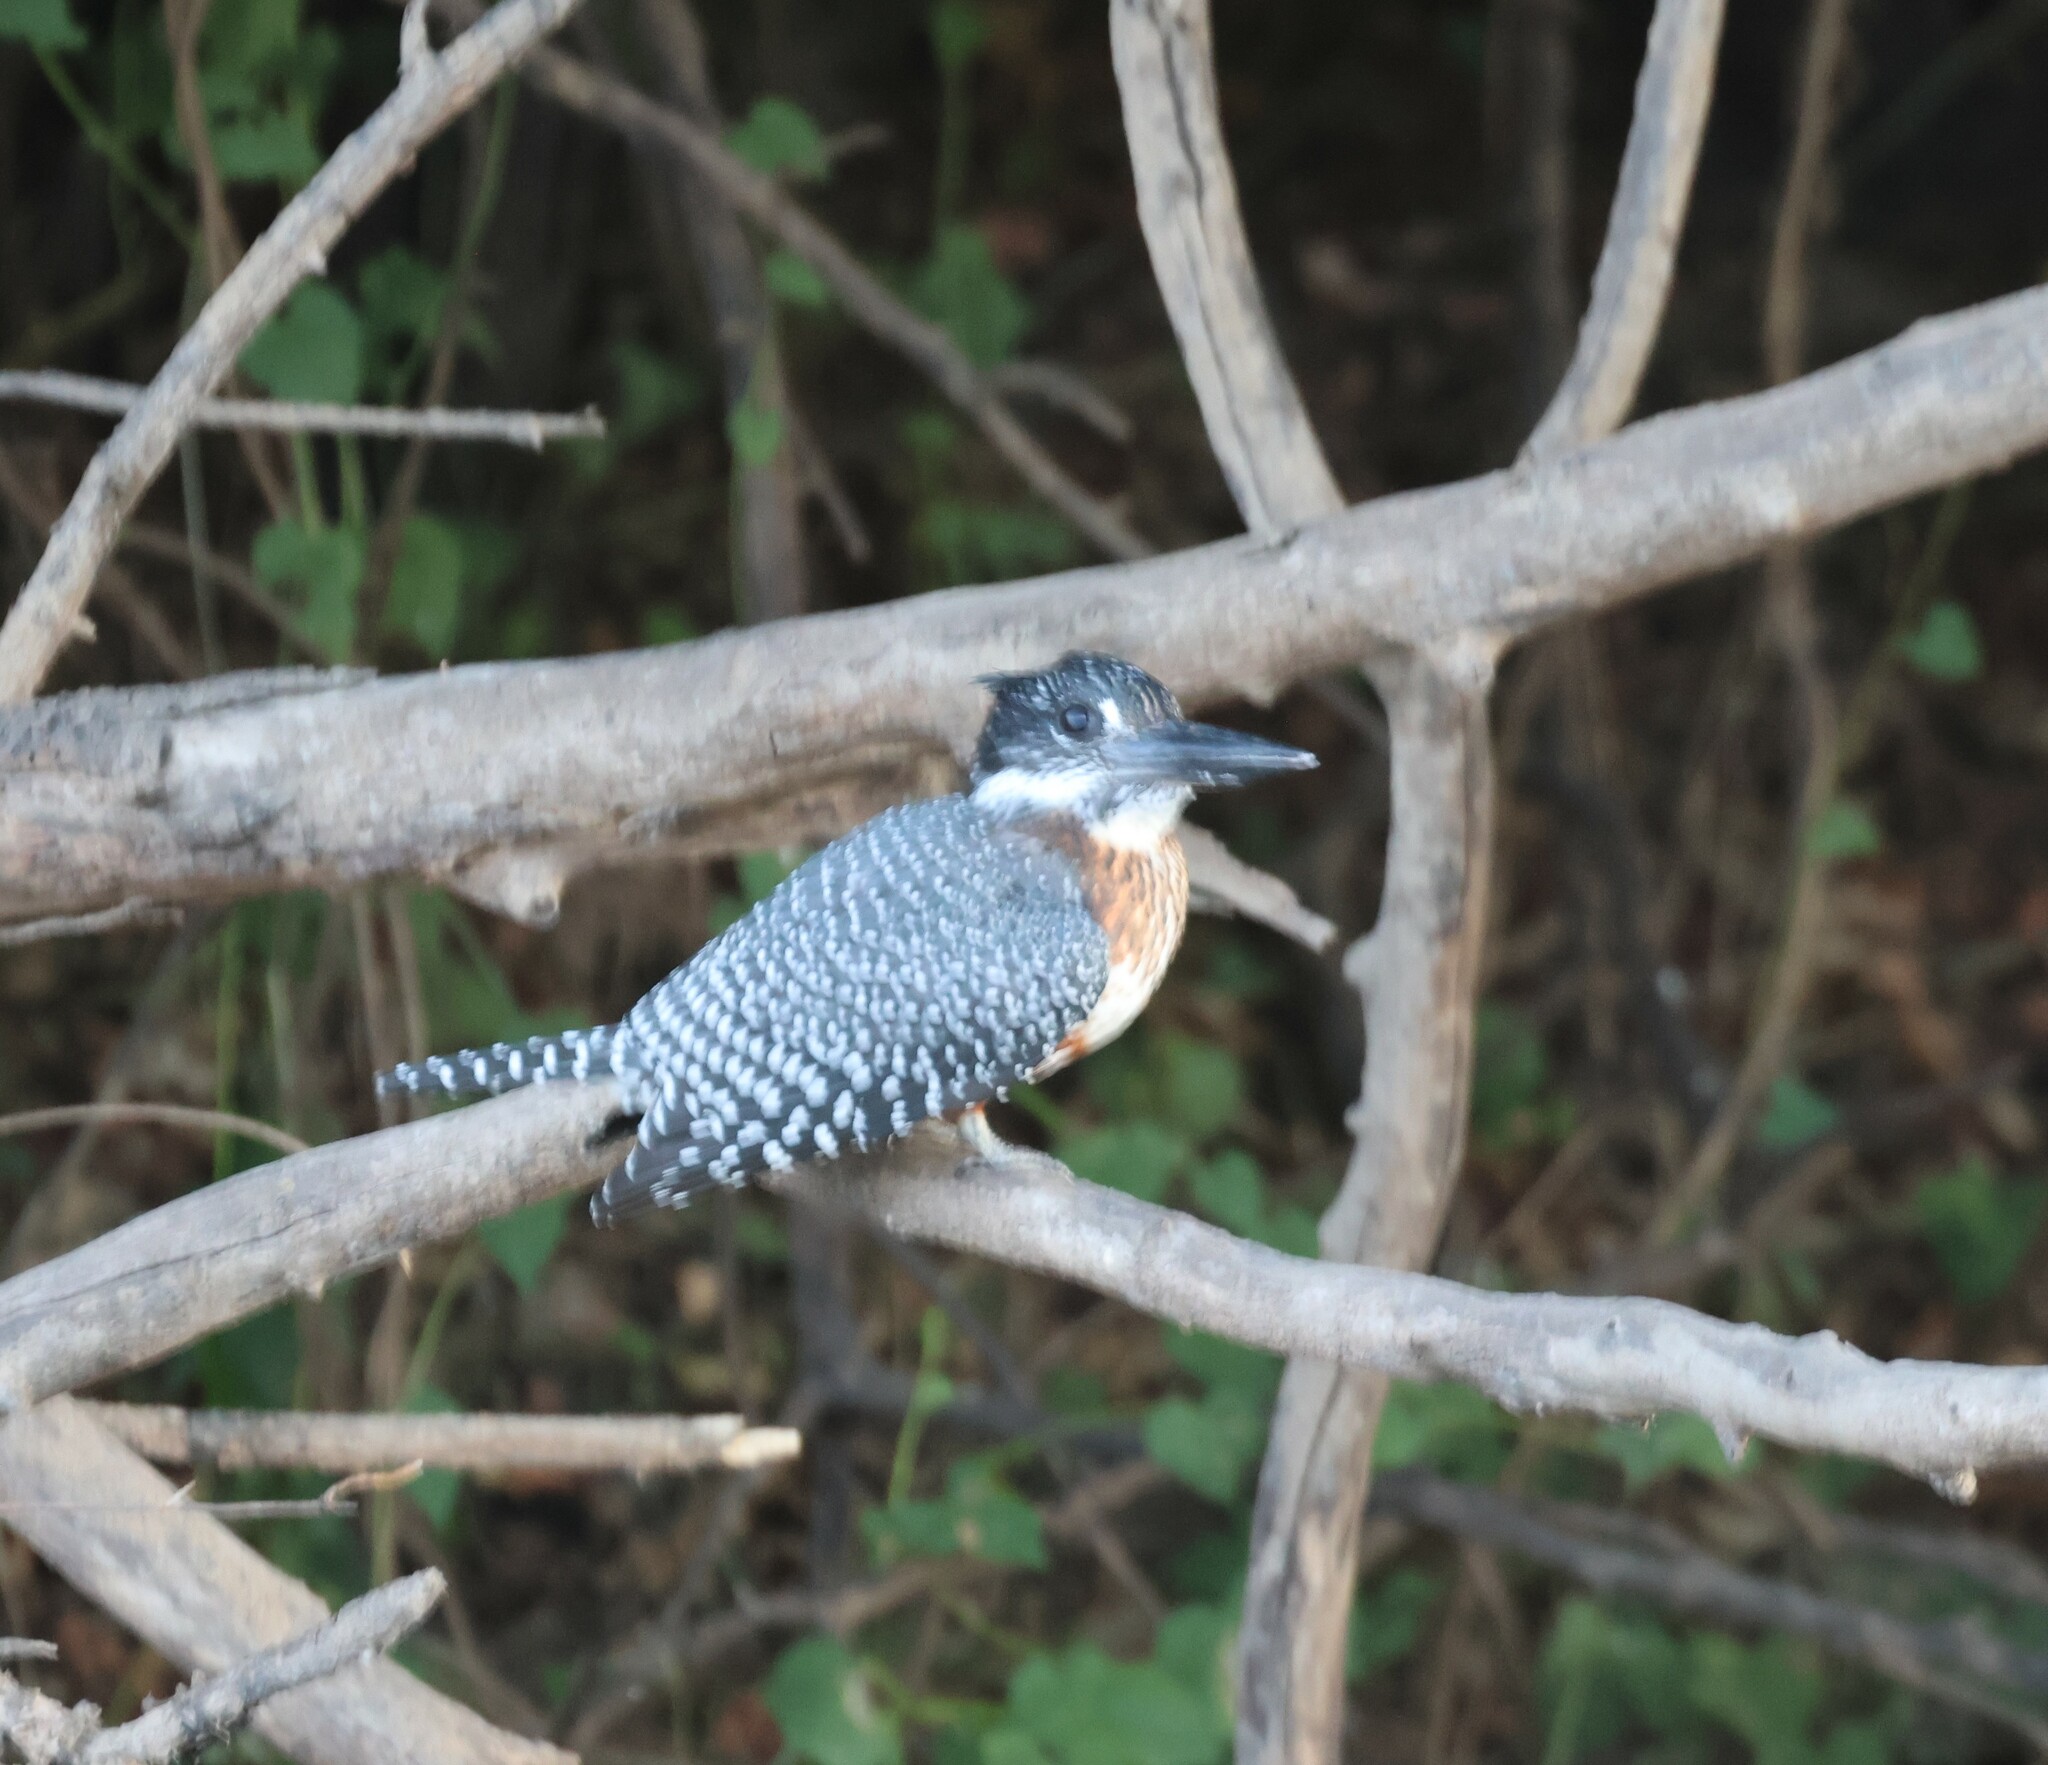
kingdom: Animalia
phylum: Chordata
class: Aves
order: Coraciiformes
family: Alcedinidae
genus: Megaceryle
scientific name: Megaceryle maxima
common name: Giant kingfisher
